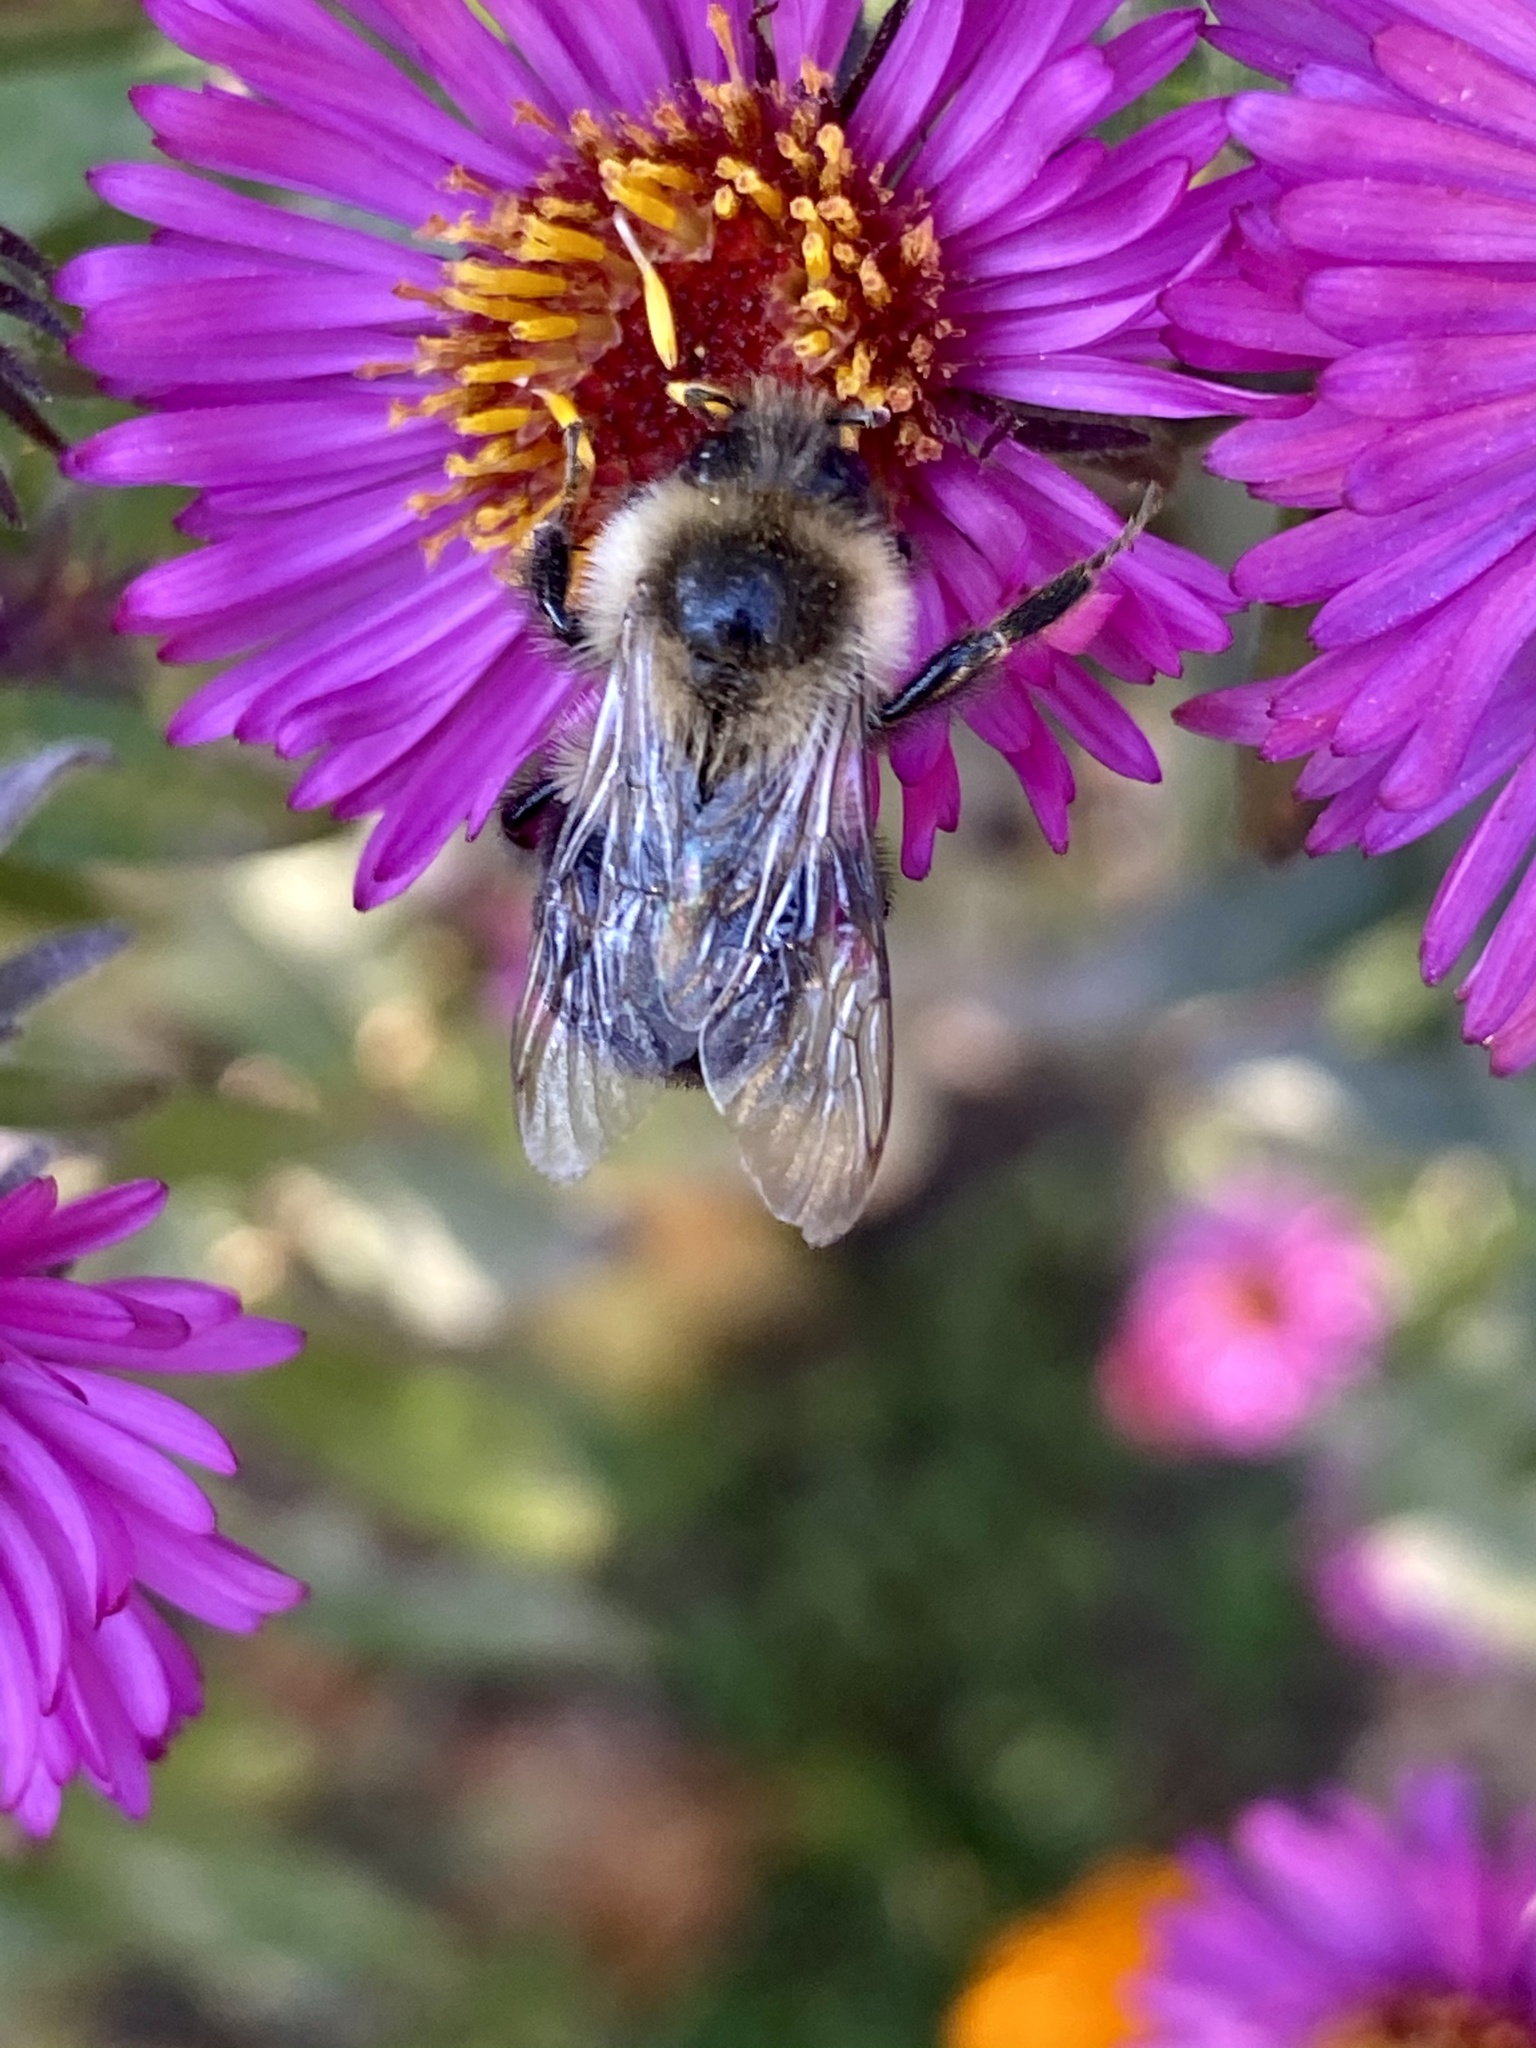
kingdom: Animalia
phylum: Arthropoda
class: Insecta
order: Hymenoptera
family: Apidae
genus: Bombus
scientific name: Bombus impatiens
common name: Common eastern bumble bee
